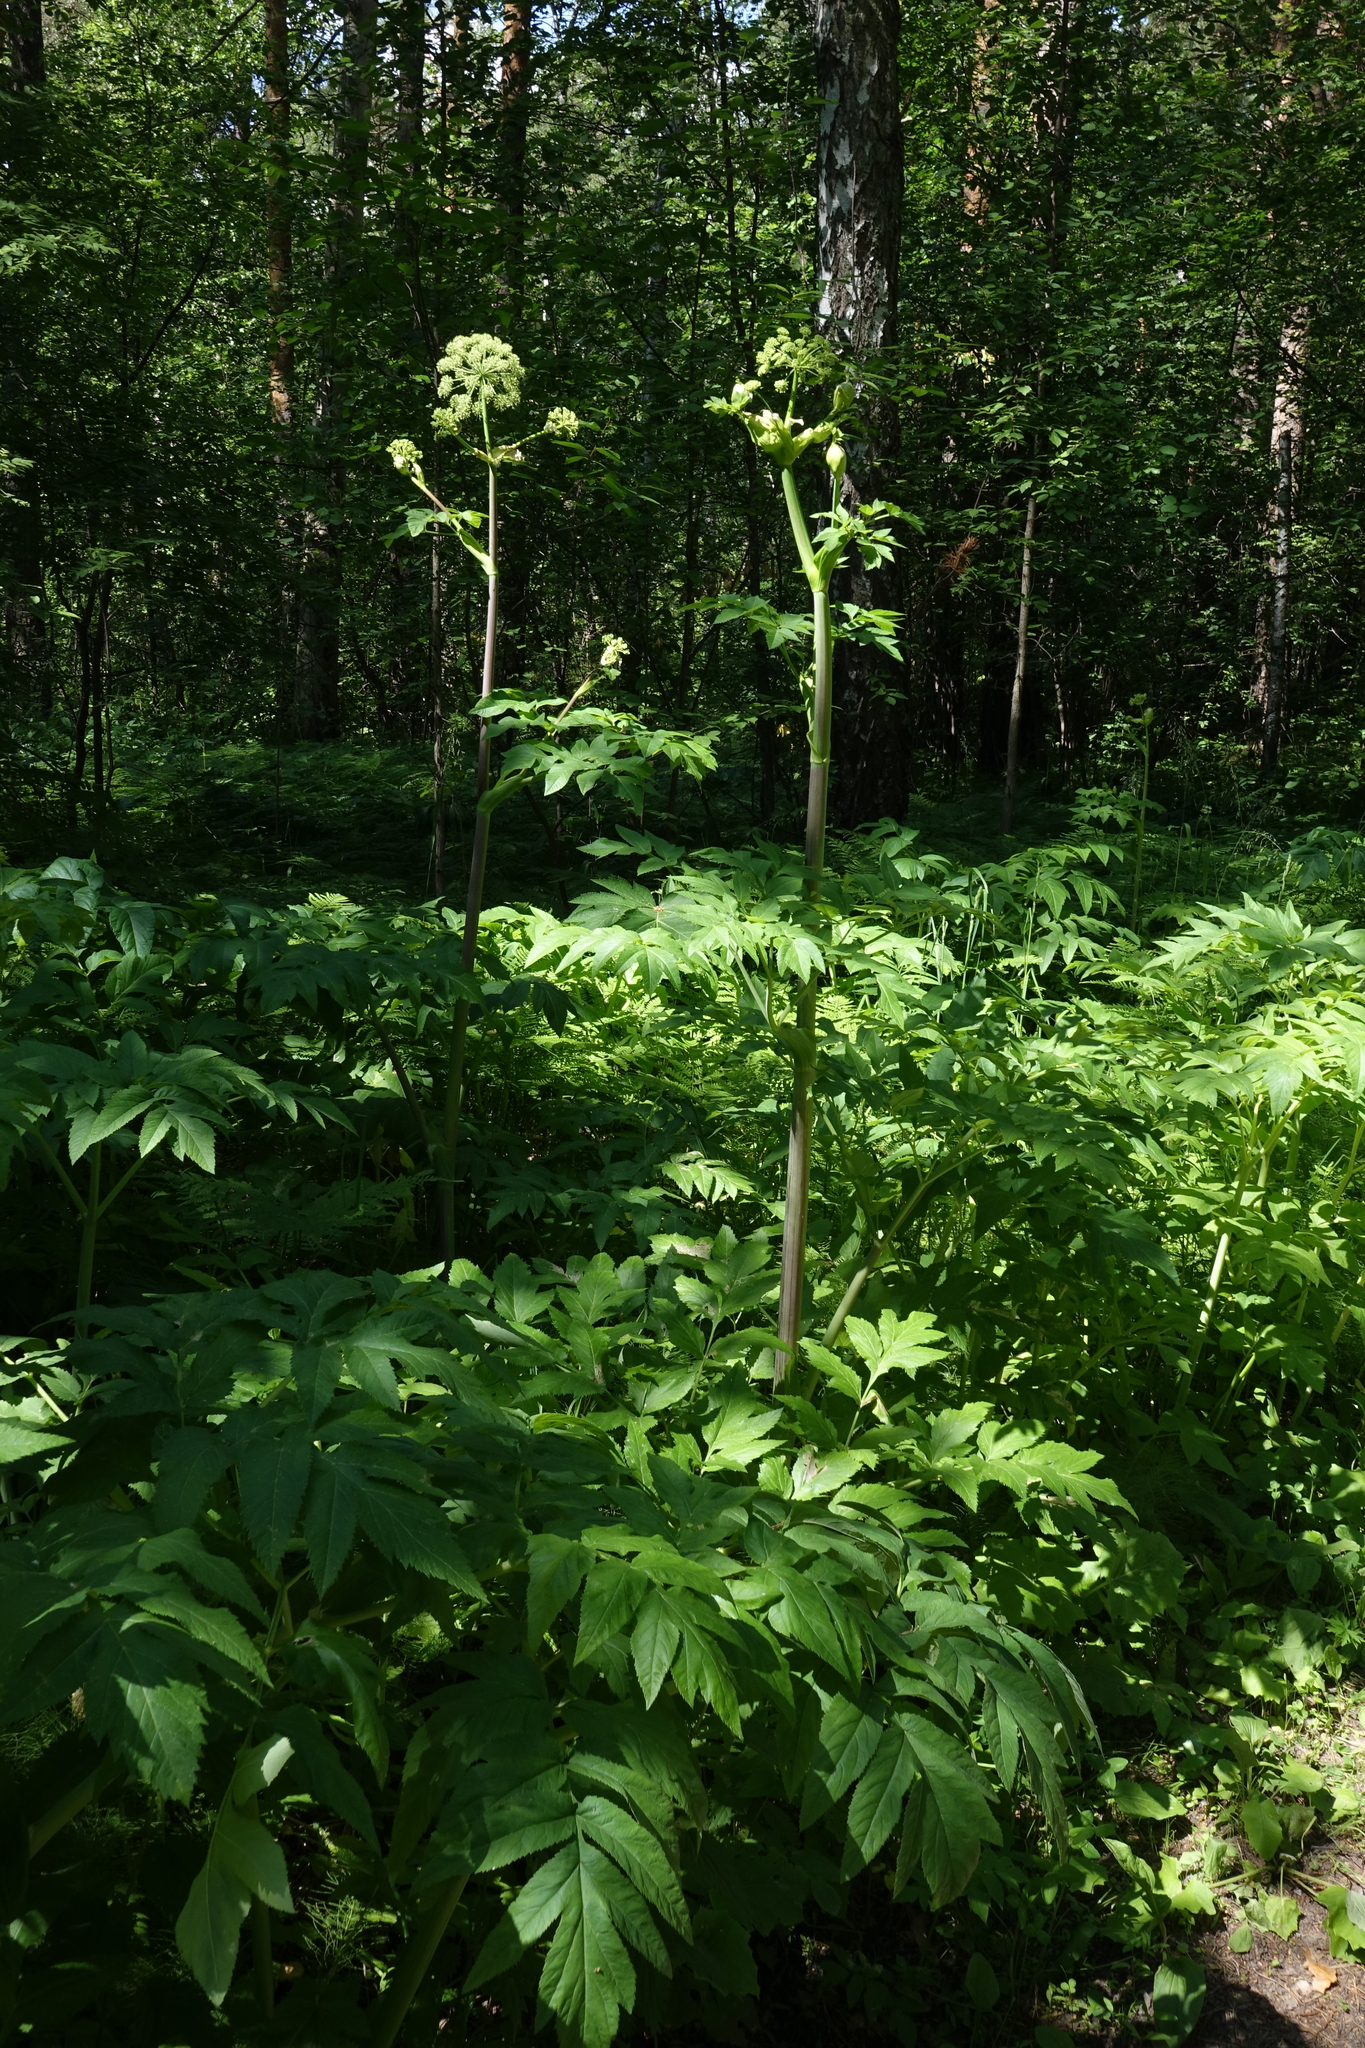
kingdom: Plantae
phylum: Tracheophyta
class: Magnoliopsida
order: Apiales
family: Apiaceae
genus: Angelica
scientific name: Angelica decurrens
